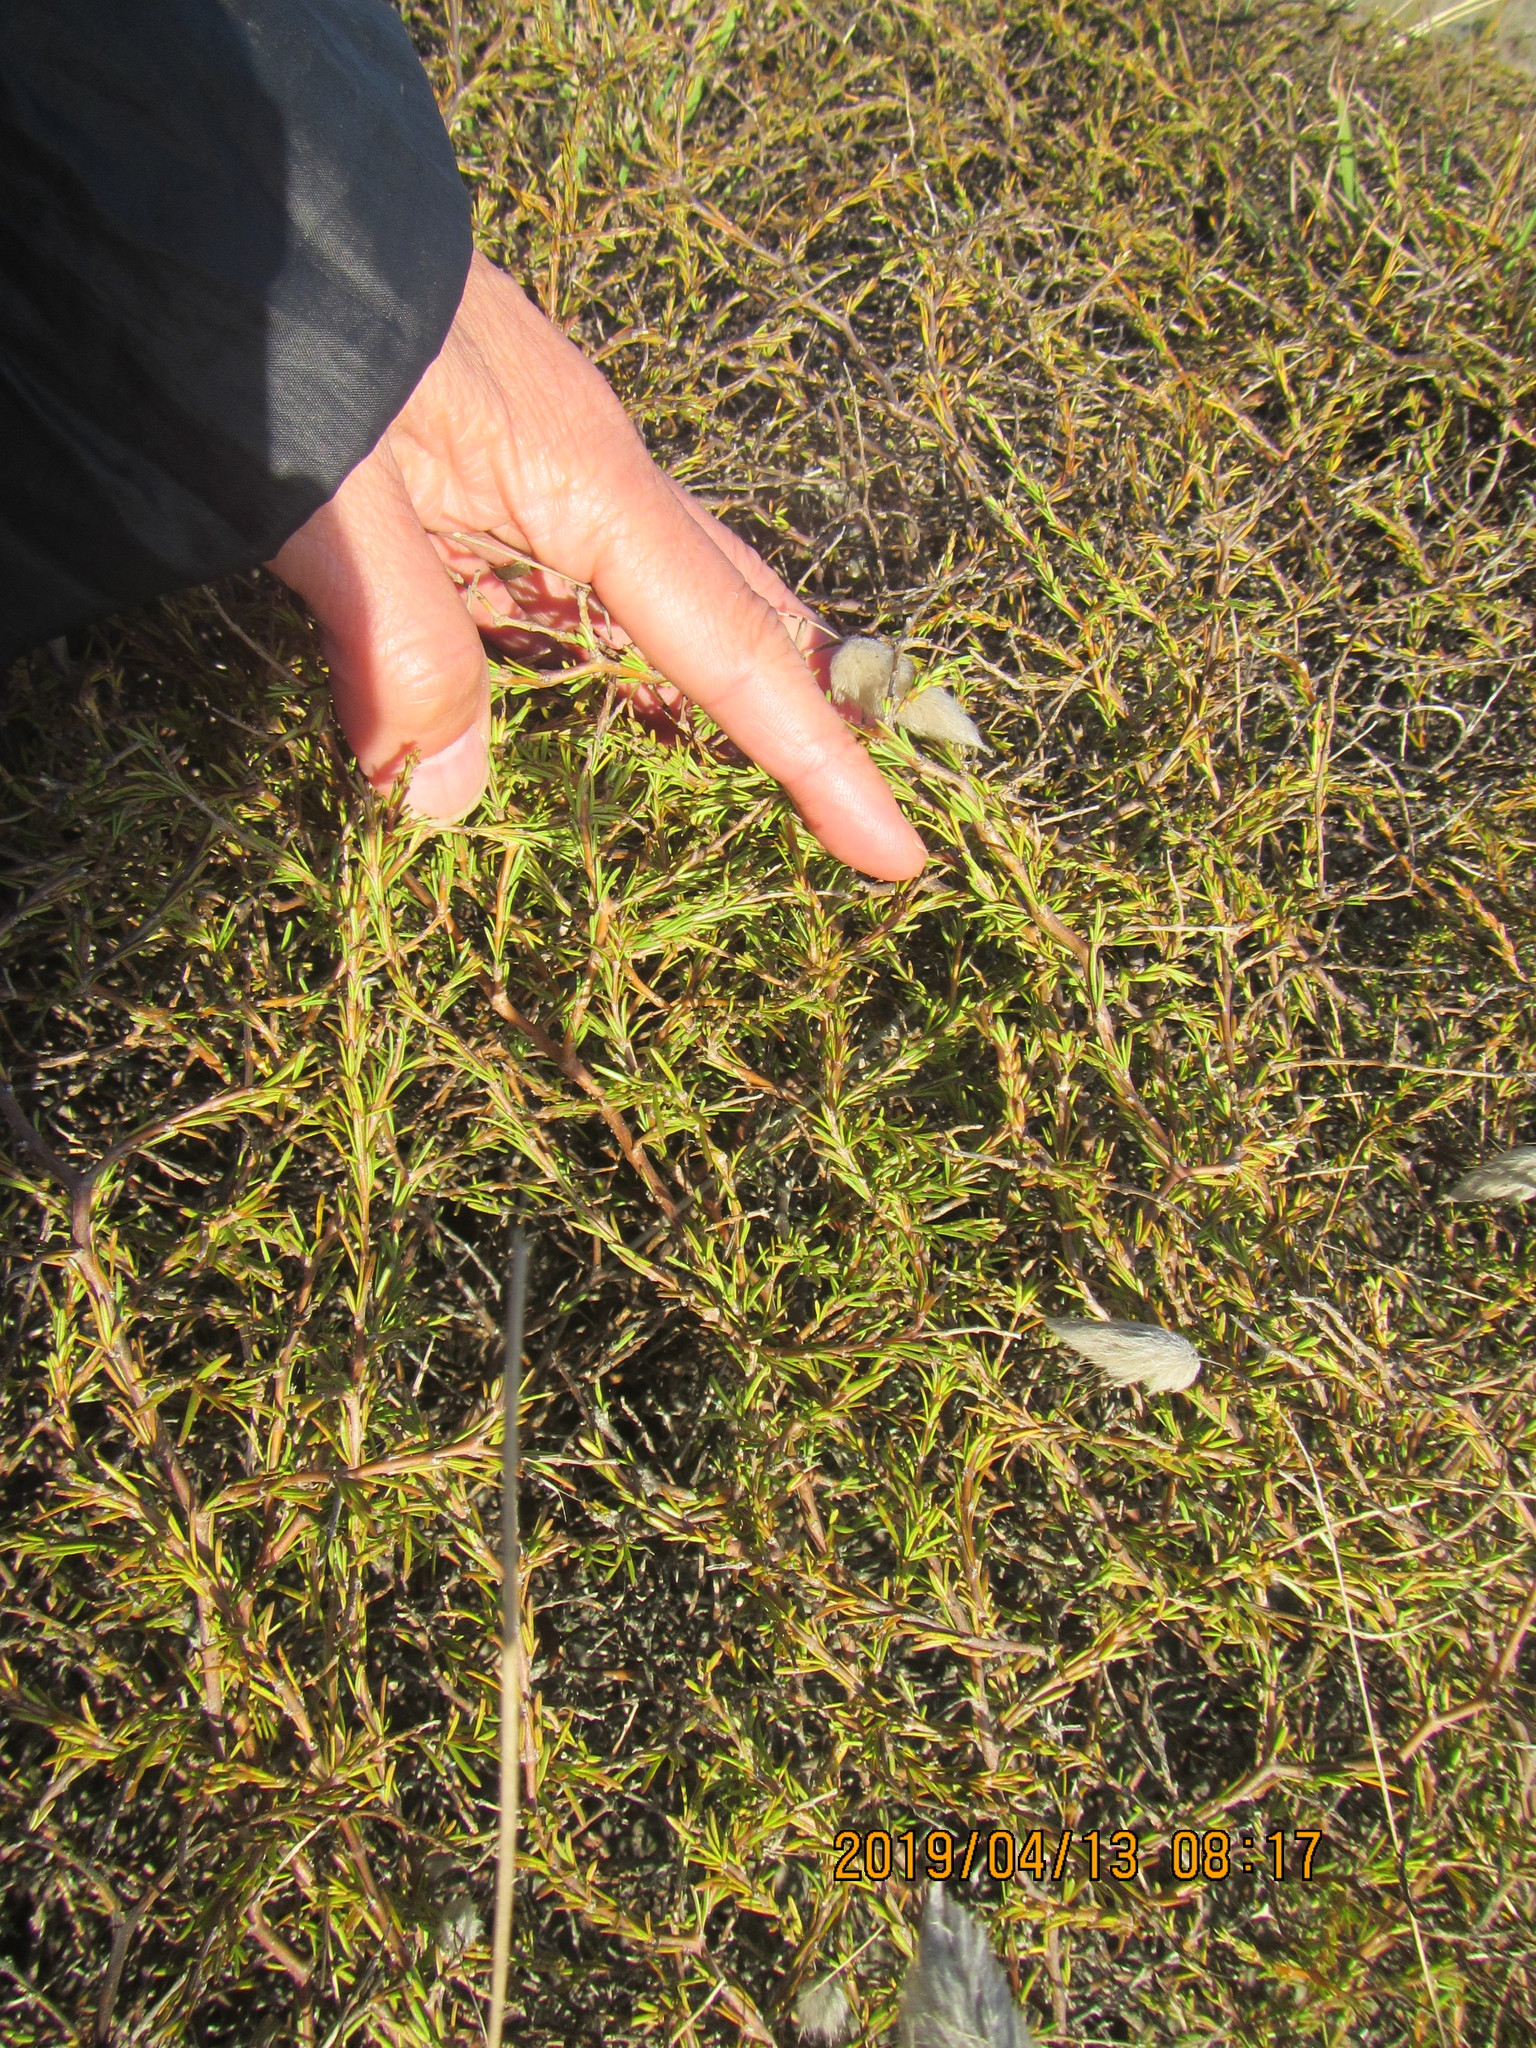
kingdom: Plantae
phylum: Tracheophyta
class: Magnoliopsida
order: Gentianales
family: Rubiaceae
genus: Coprosma
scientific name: Coprosma acerosa
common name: Sand coprosma
